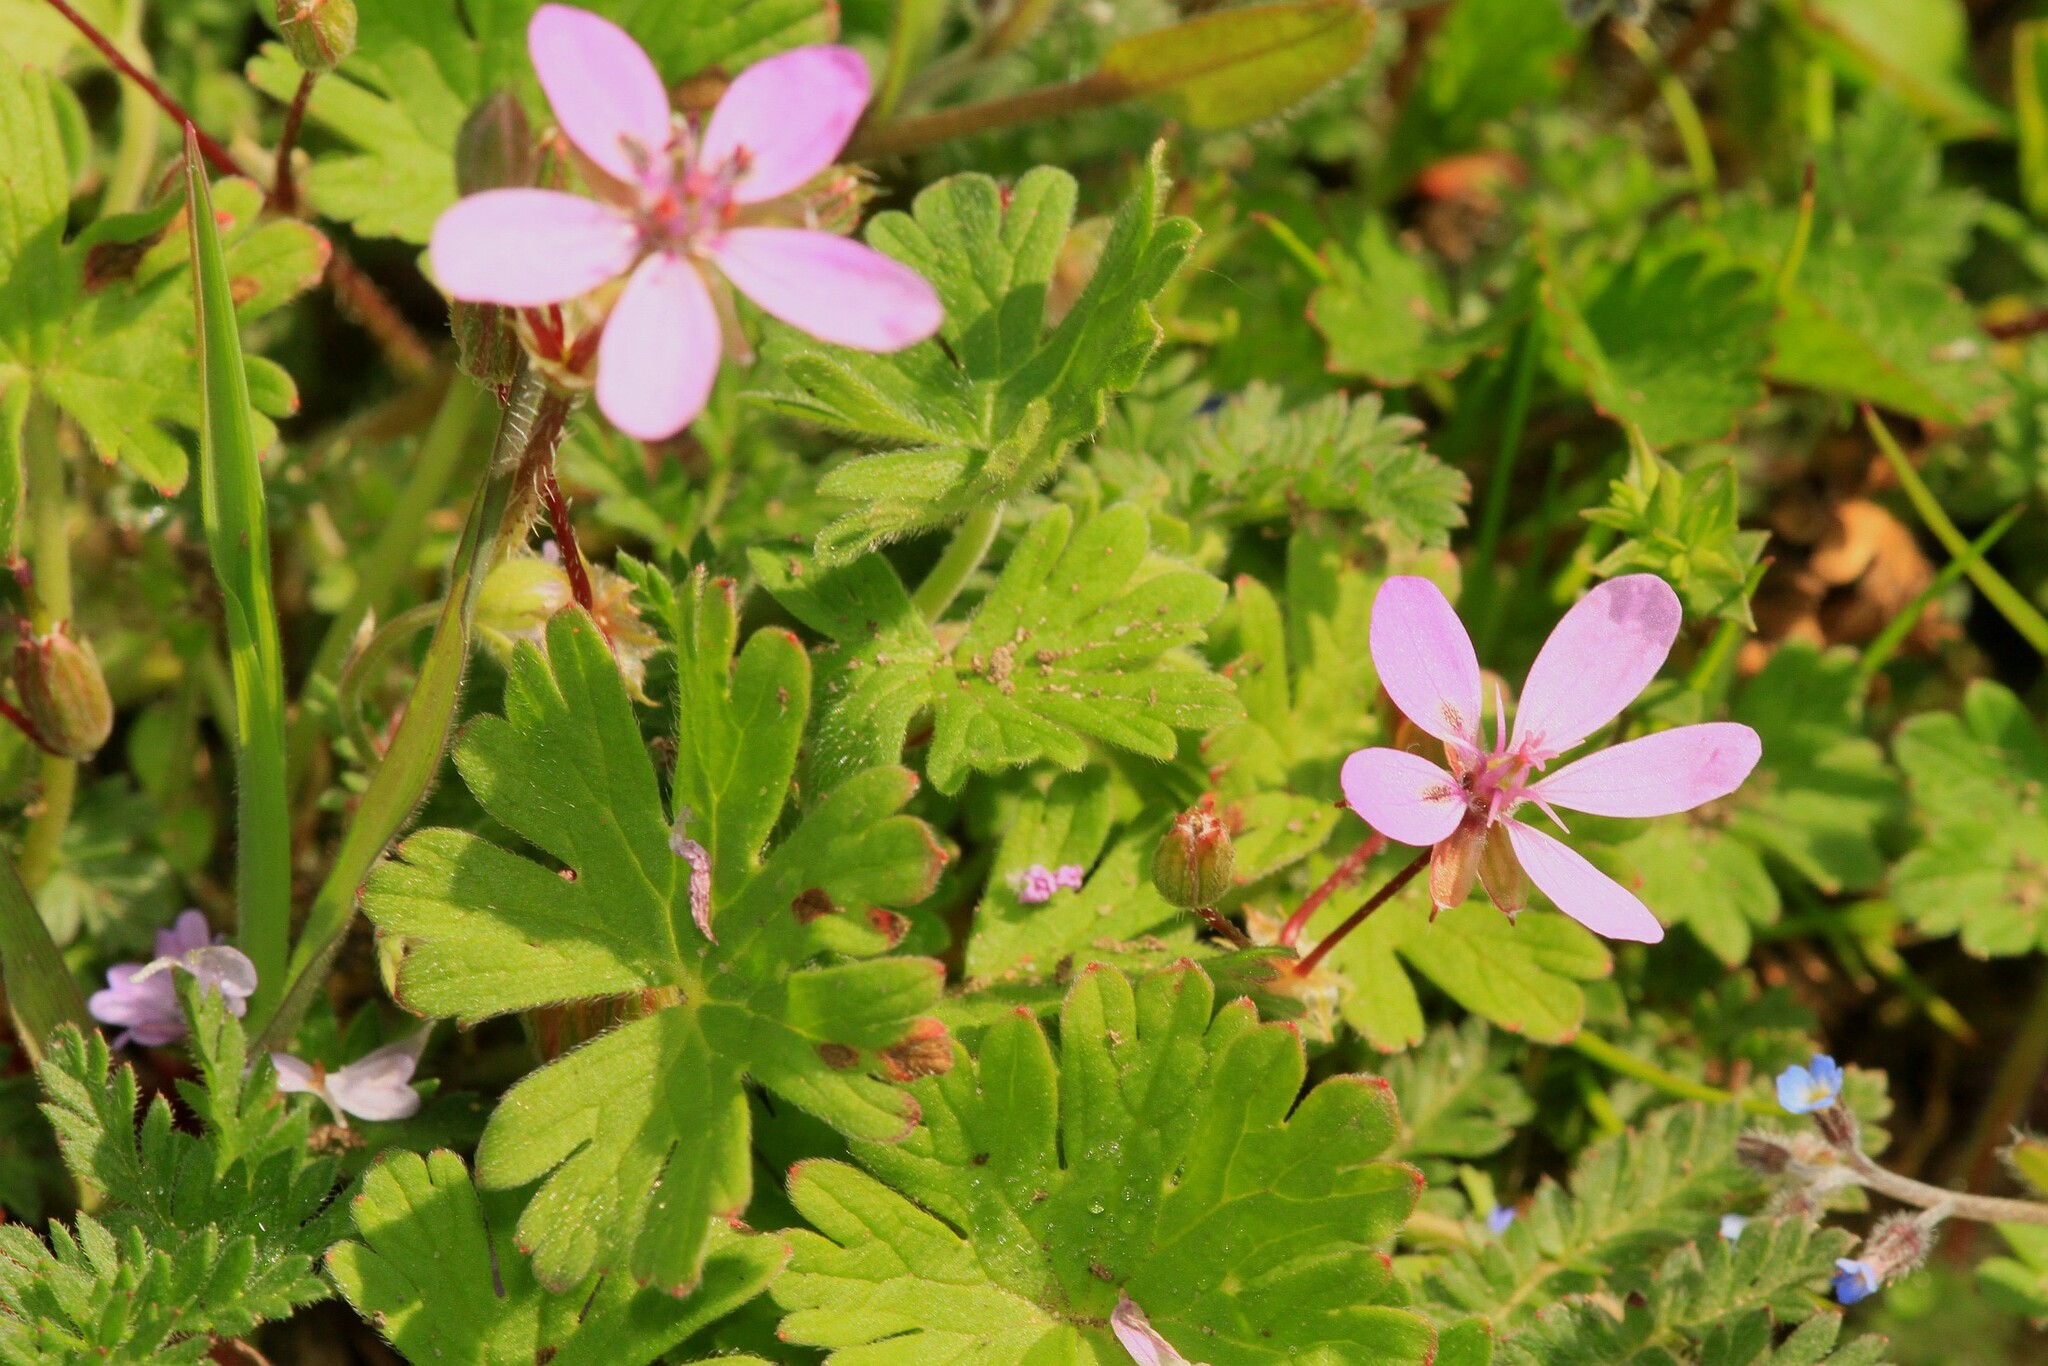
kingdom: Plantae
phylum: Tracheophyta
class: Magnoliopsida
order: Geraniales
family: Geraniaceae
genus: Erodium
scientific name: Erodium cicutarium
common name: Common stork's-bill
